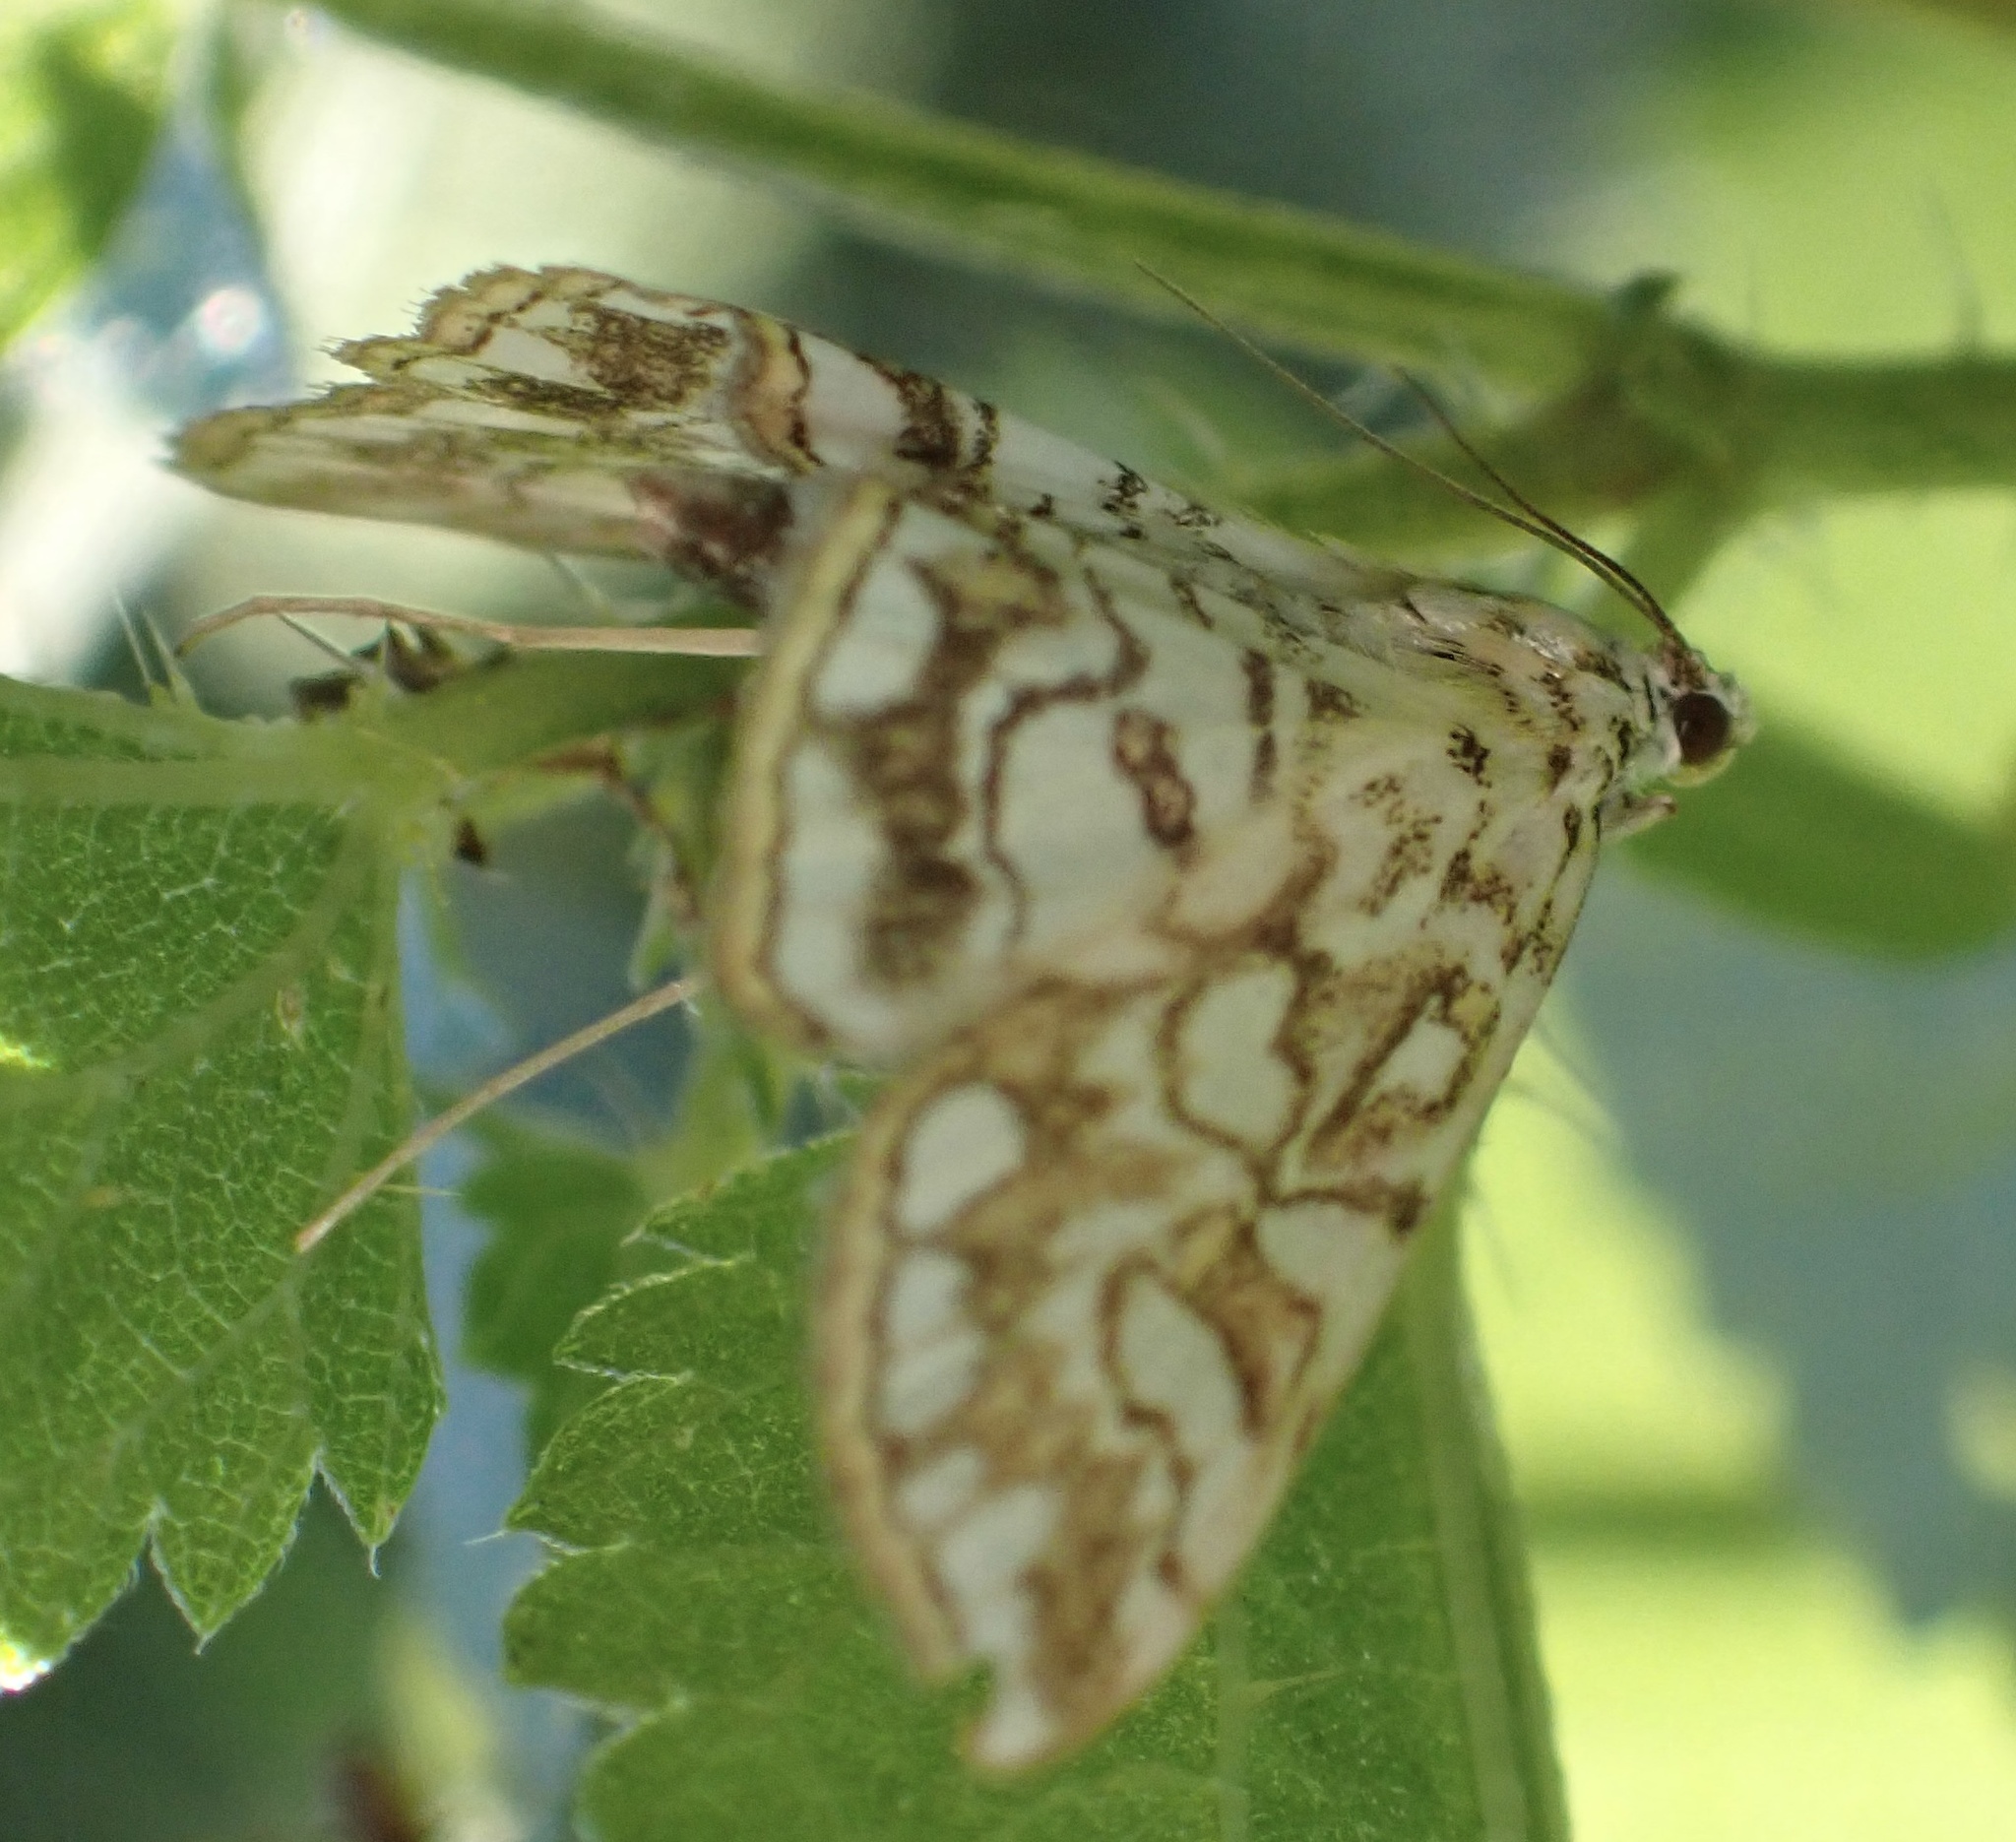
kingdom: Animalia
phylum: Arthropoda
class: Insecta
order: Lepidoptera
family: Crambidae
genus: Elophila
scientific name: Elophila nymphaeata
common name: Brown china-mark
